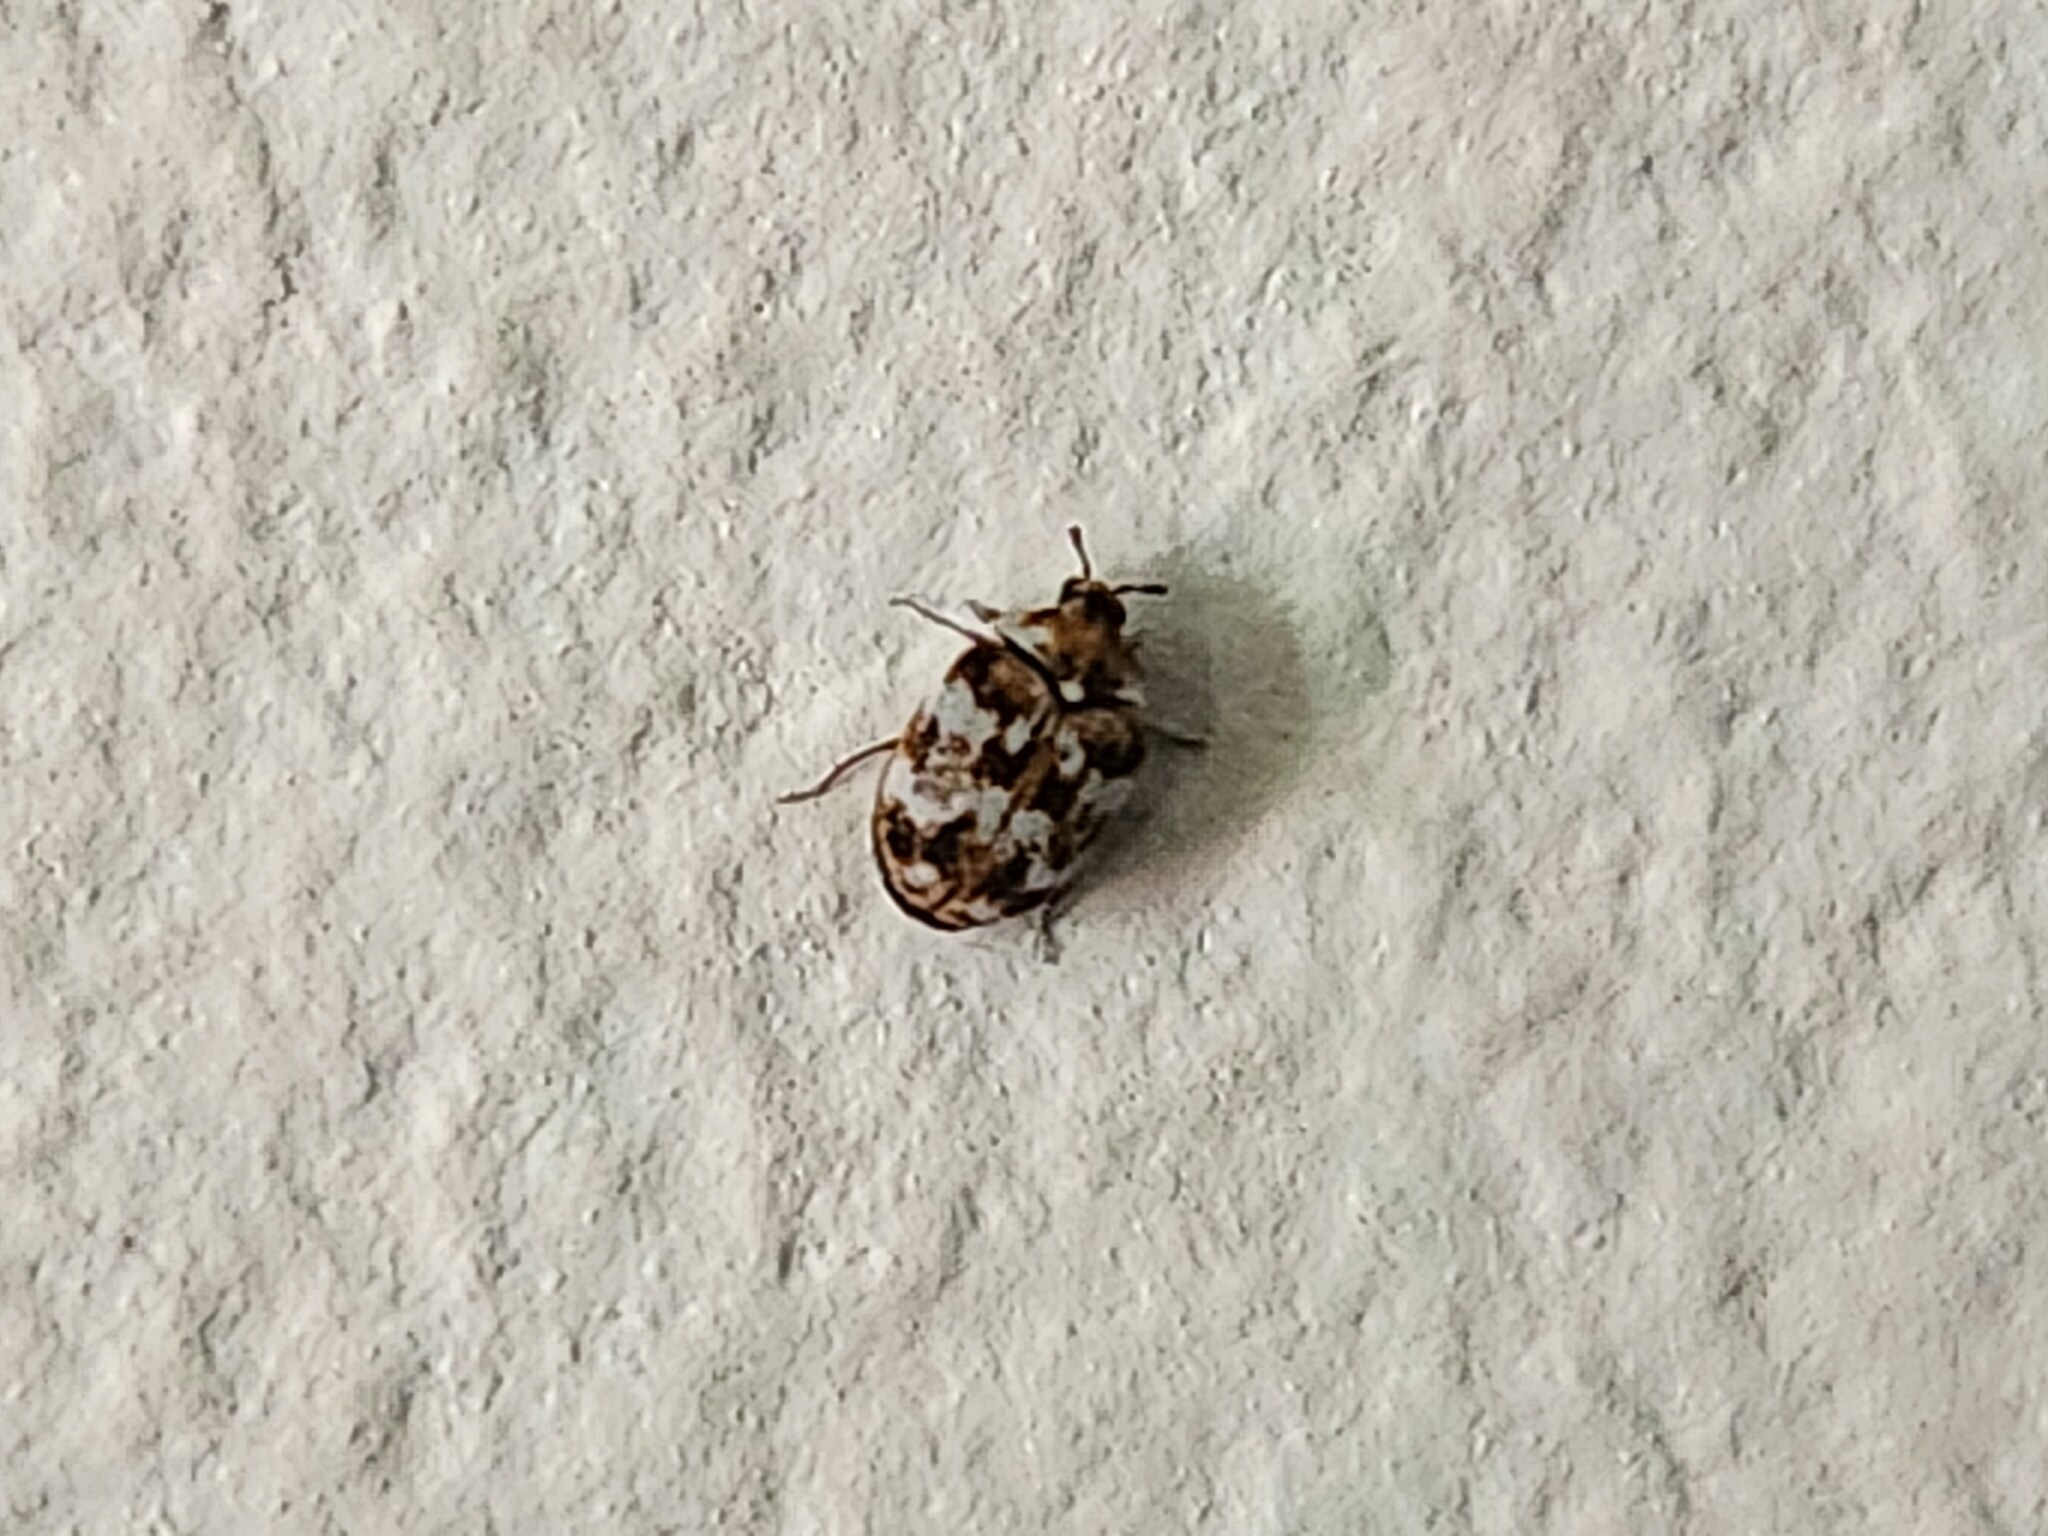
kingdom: Animalia
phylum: Arthropoda
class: Insecta
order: Coleoptera
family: Dermestidae
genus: Anthrenus
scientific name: Anthrenus verbasci
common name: Varied carpet beetle
